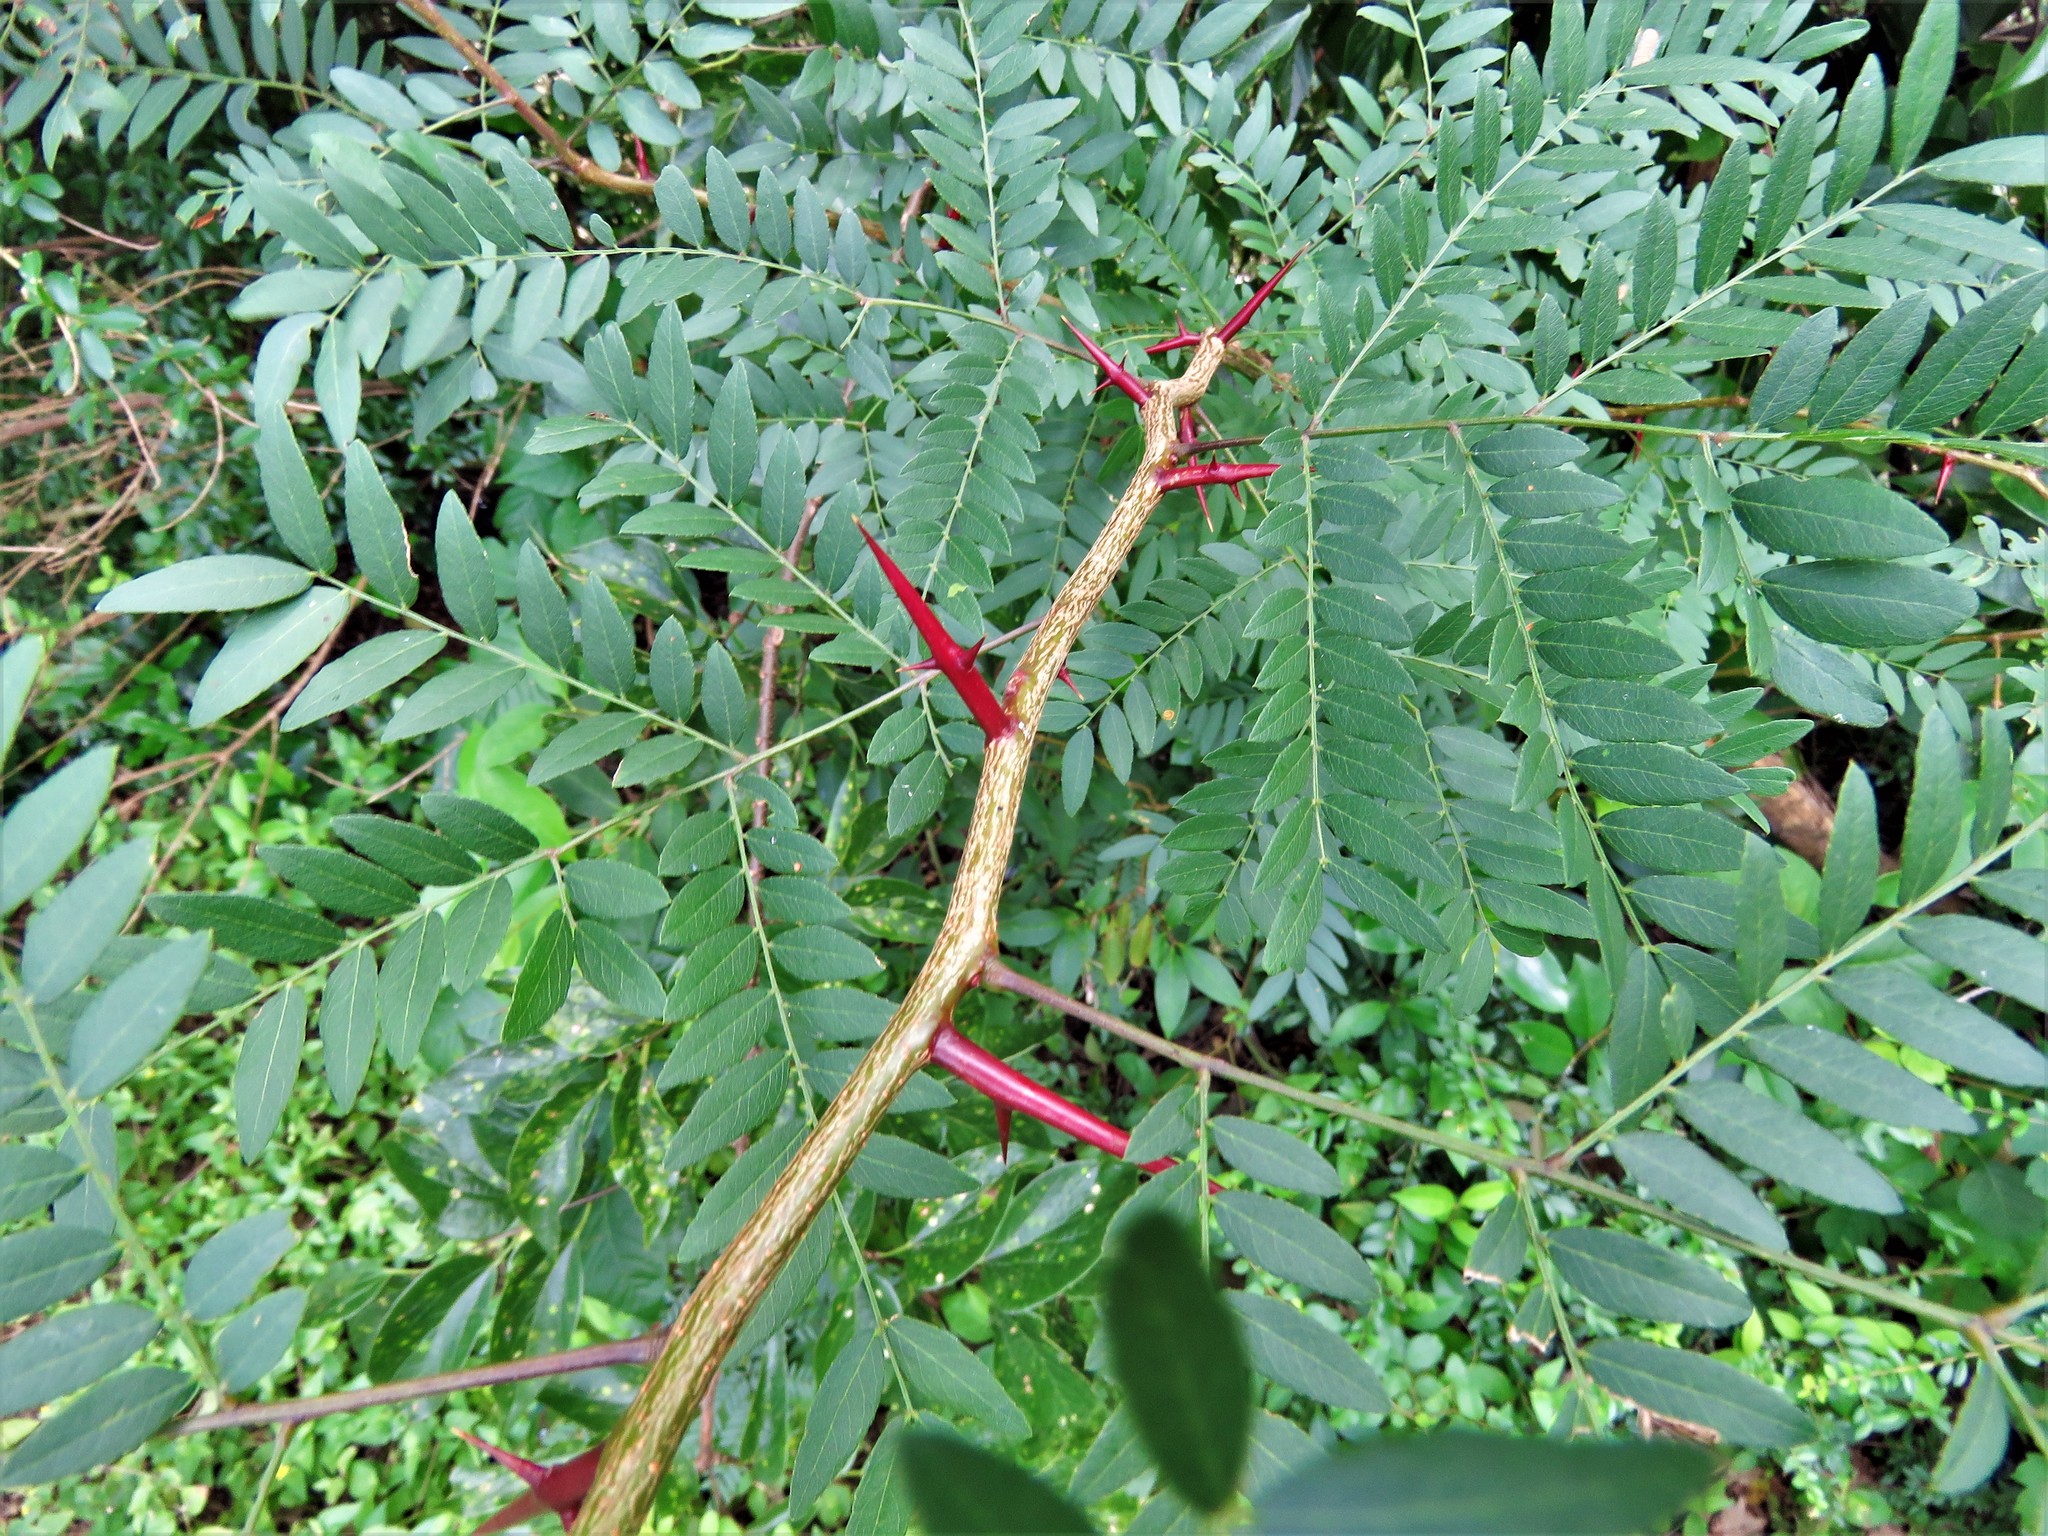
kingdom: Plantae
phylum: Tracheophyta
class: Magnoliopsida
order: Fabales
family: Fabaceae
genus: Gleditsia
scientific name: Gleditsia triacanthos
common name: Common honeylocust
